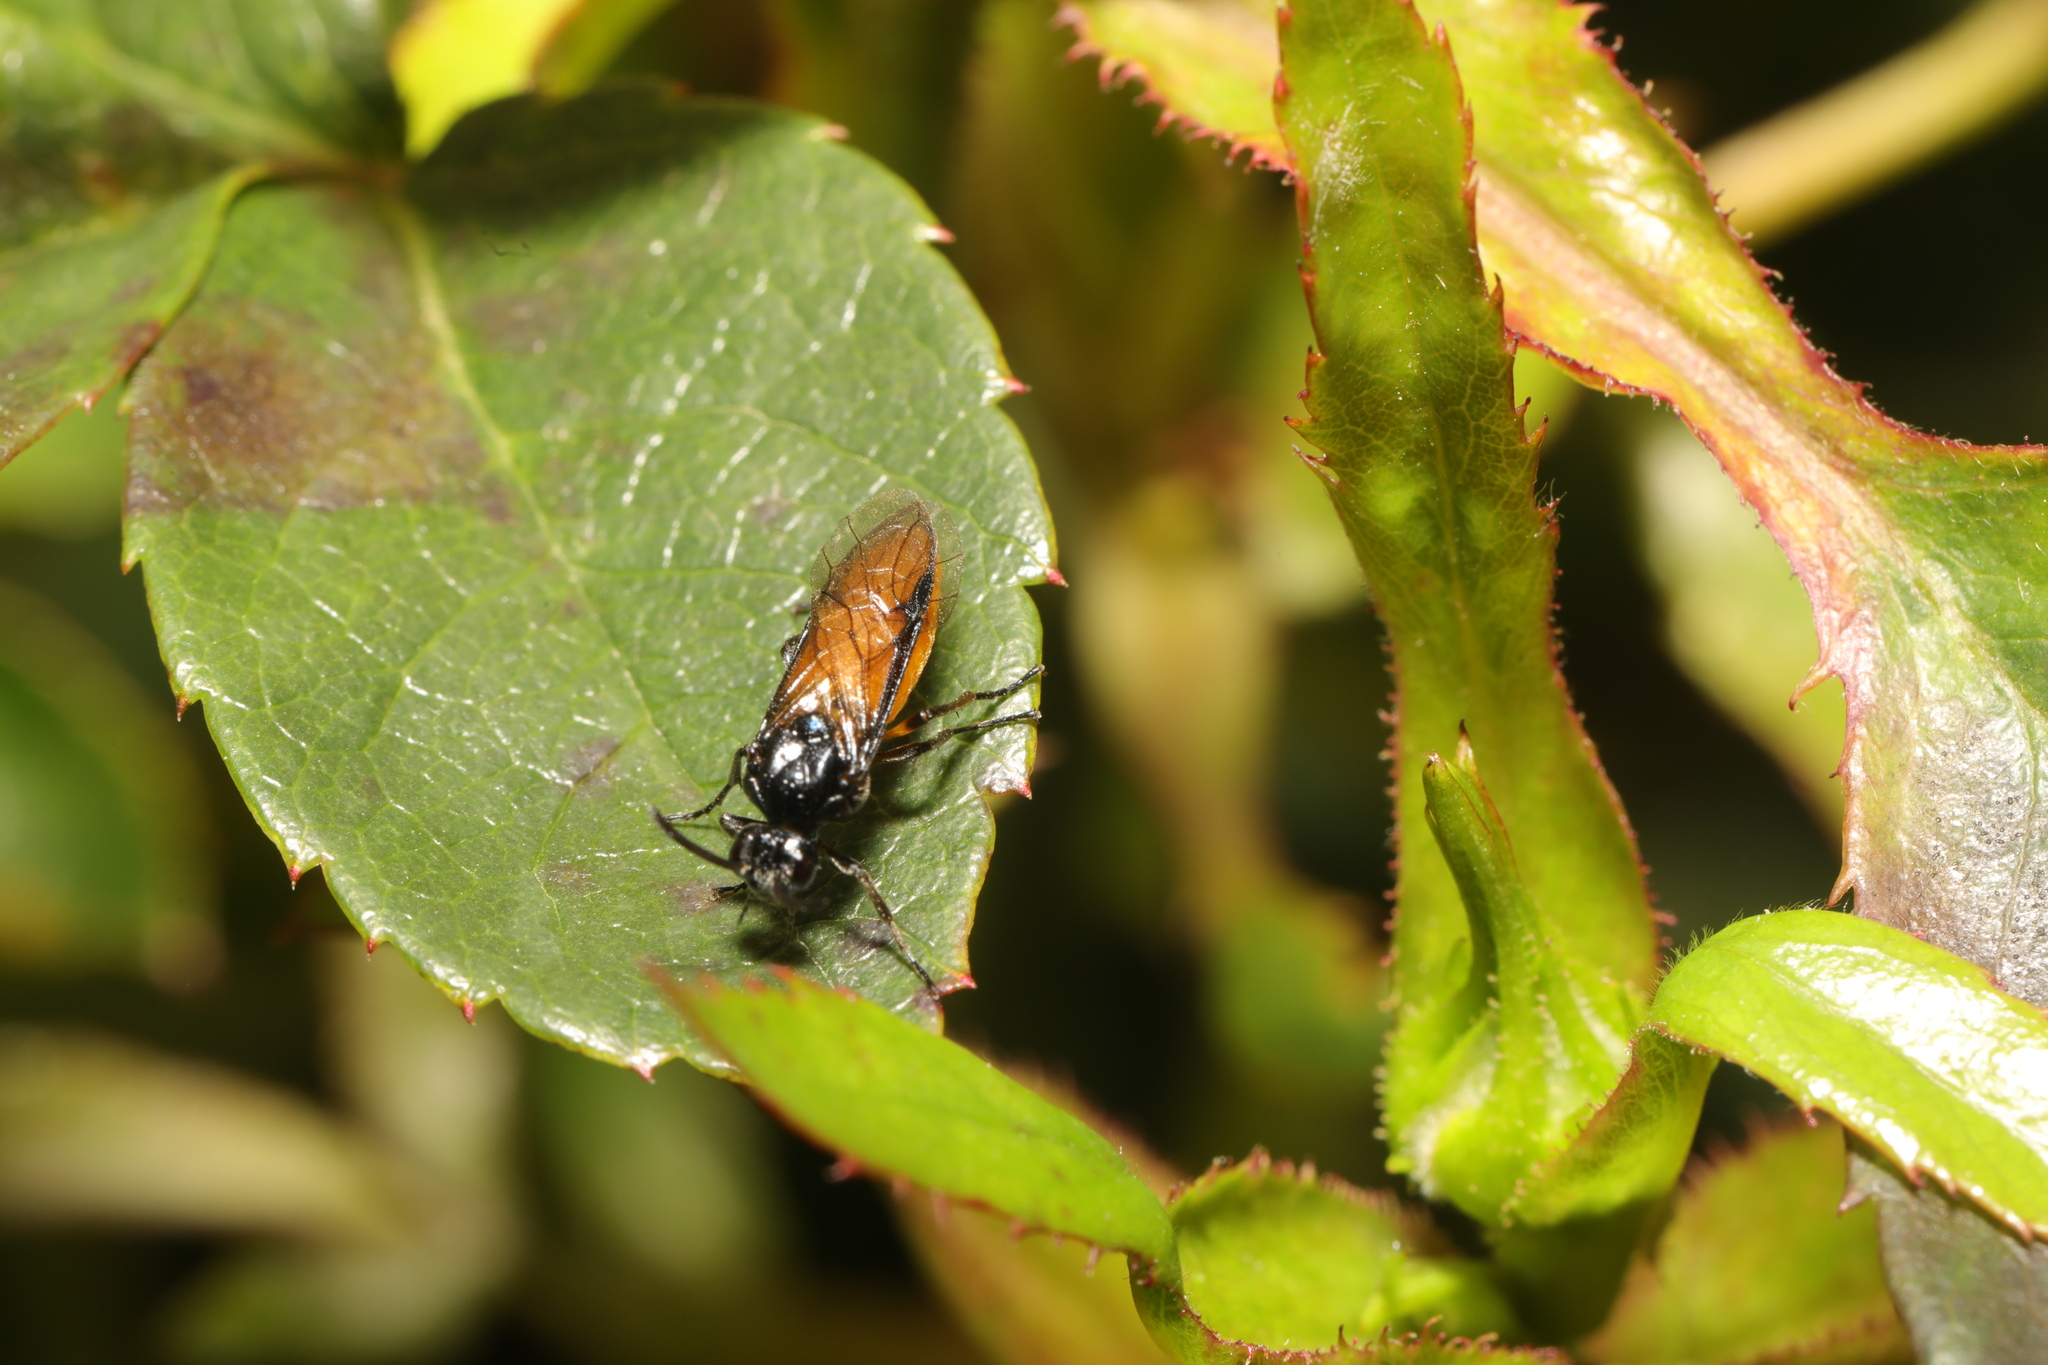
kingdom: Animalia
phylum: Arthropoda
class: Insecta
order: Hymenoptera
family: Argidae
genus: Arge
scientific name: Arge pagana
